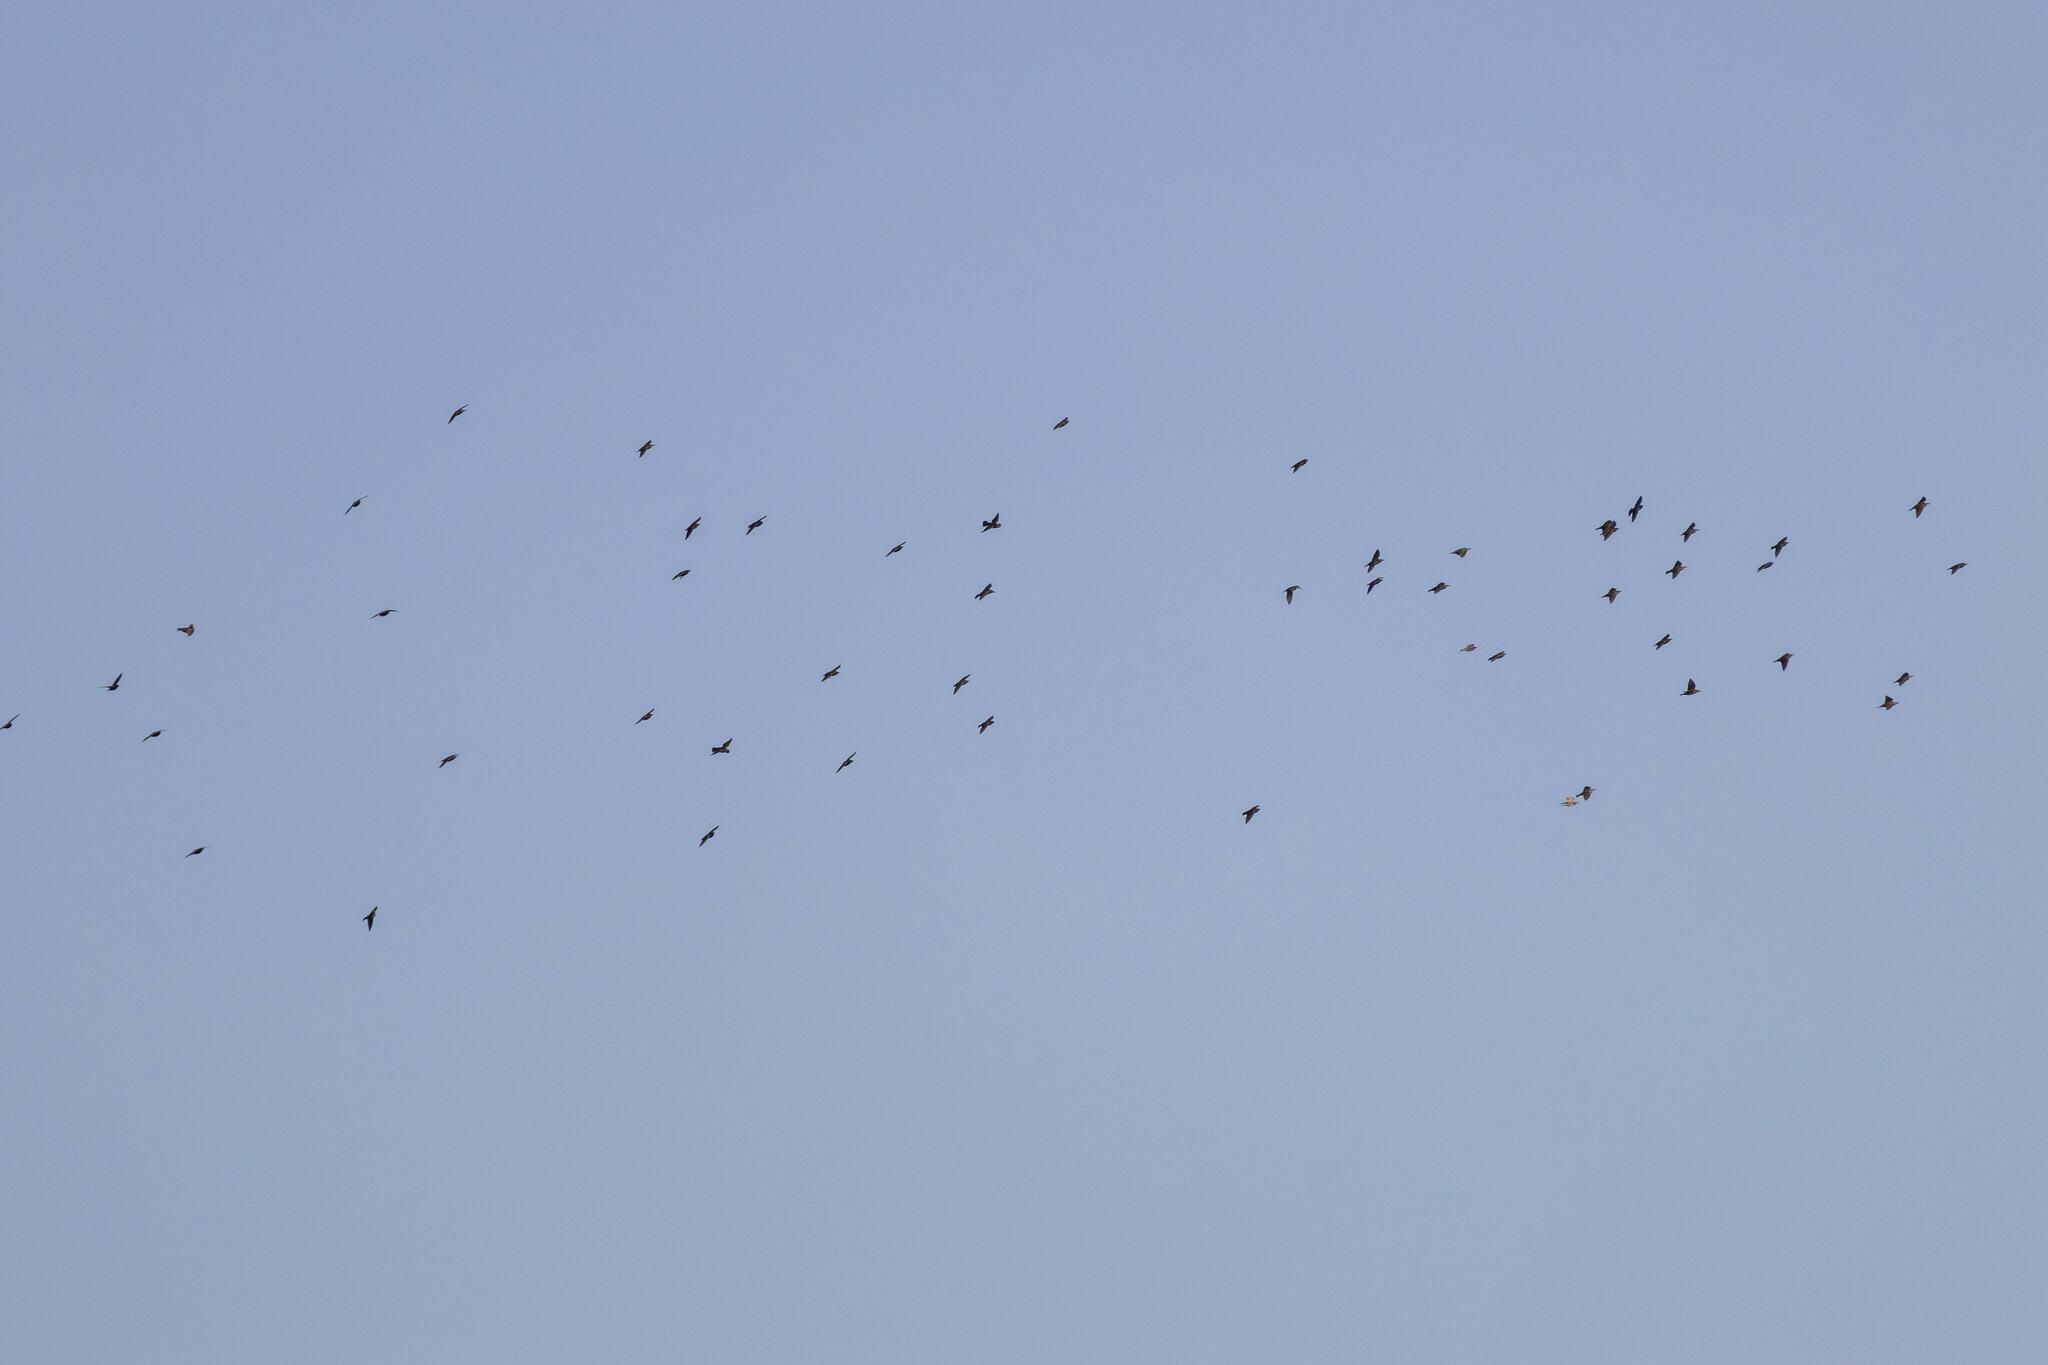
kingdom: Animalia
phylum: Chordata
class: Aves
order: Passeriformes
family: Sturnidae
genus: Sturnus
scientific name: Sturnus vulgaris
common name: Common starling
